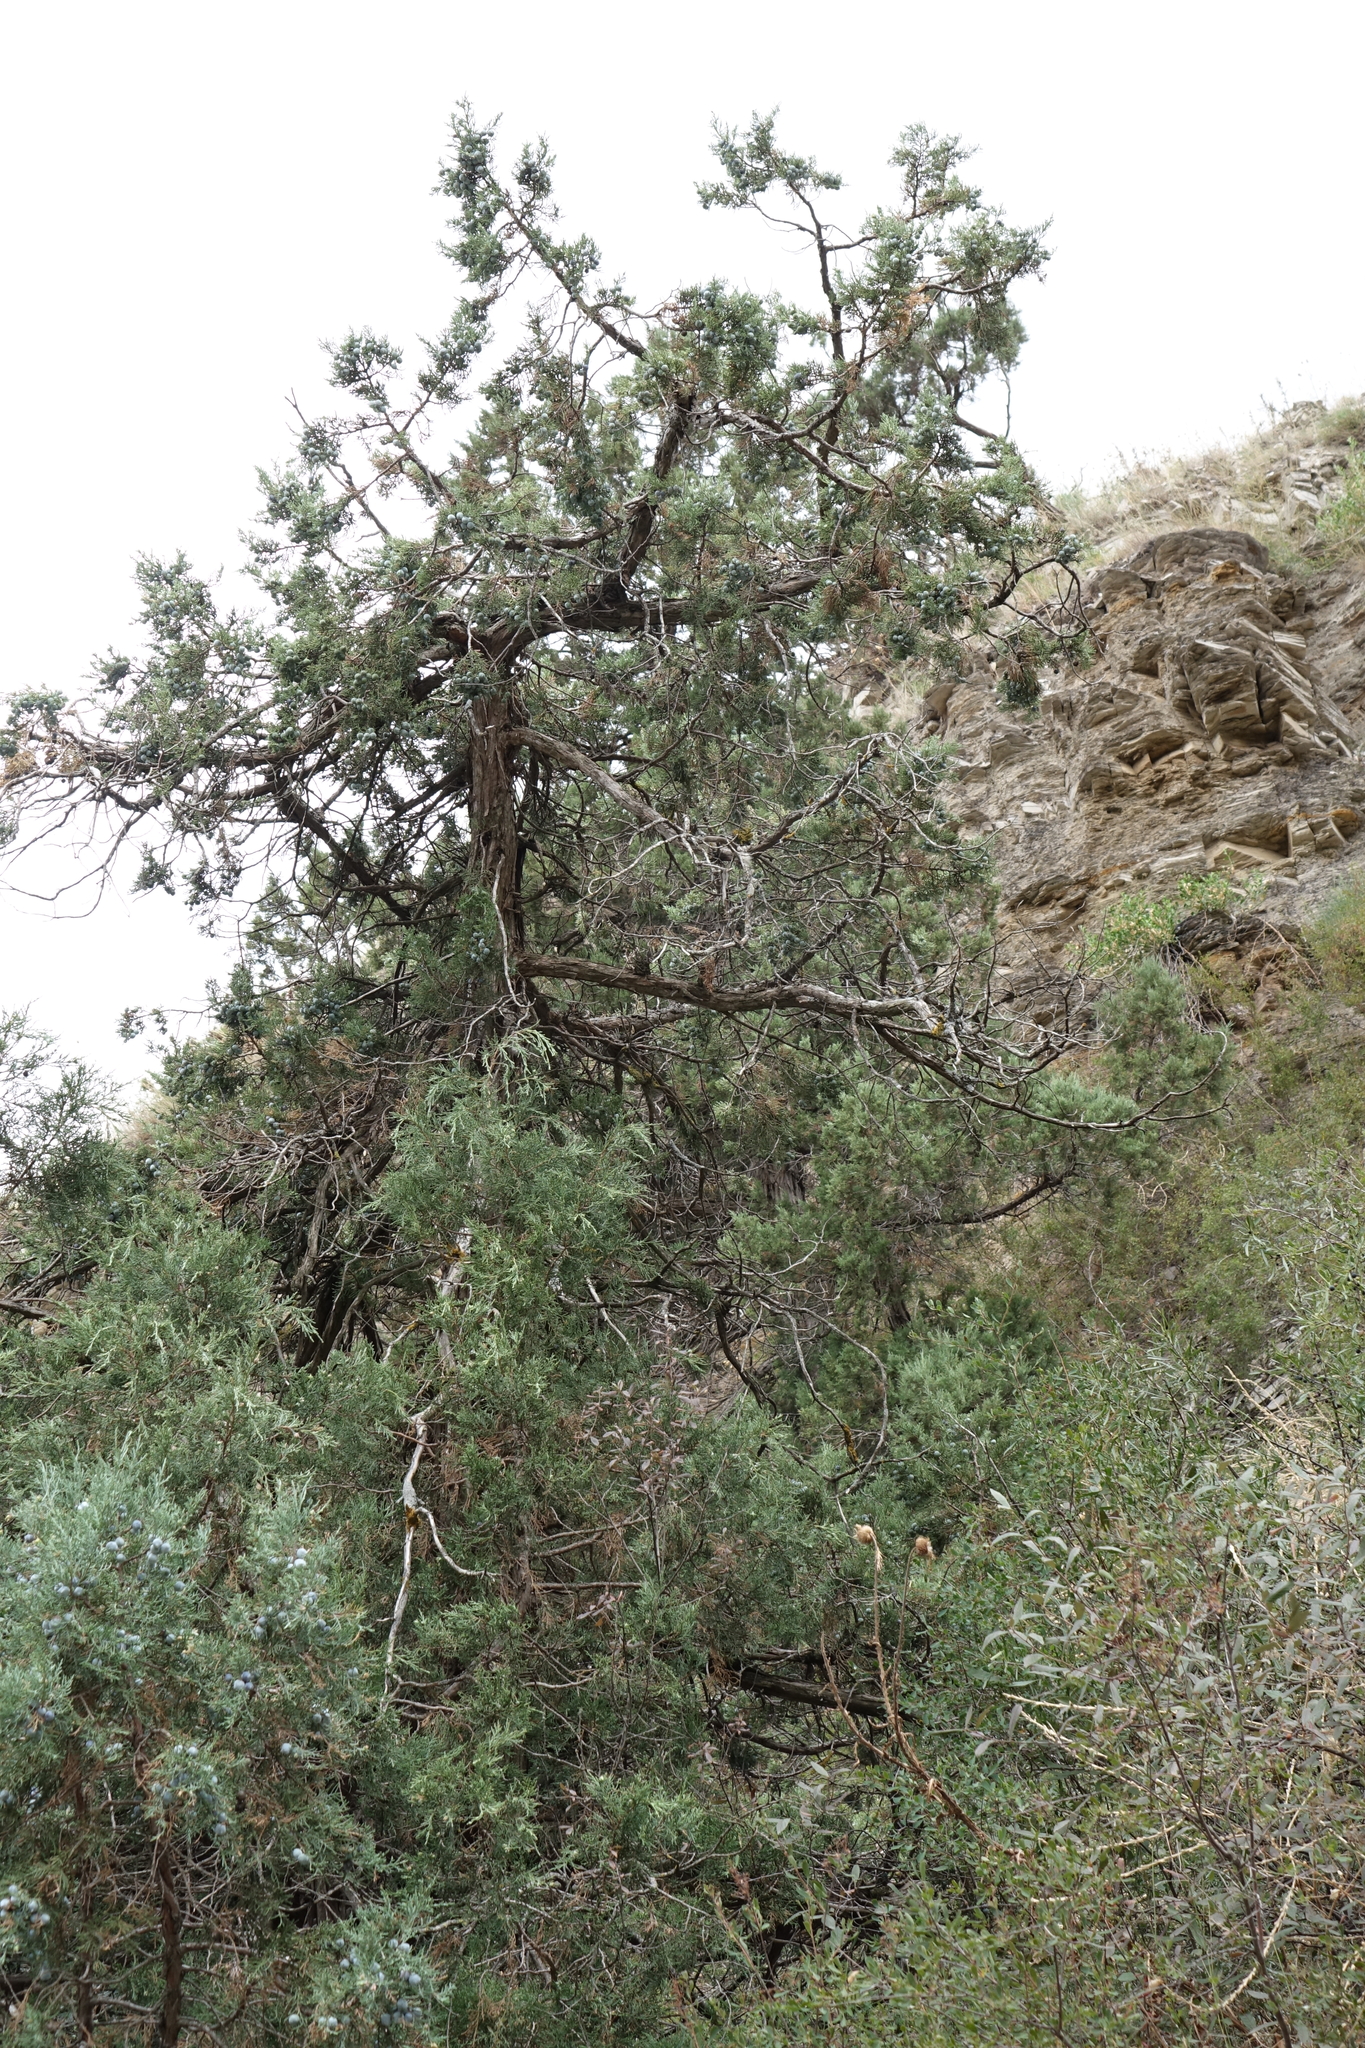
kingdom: Plantae
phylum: Tracheophyta
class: Pinopsida
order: Pinales
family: Cupressaceae
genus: Juniperus
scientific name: Juniperus excelsa
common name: Crimean juniper
